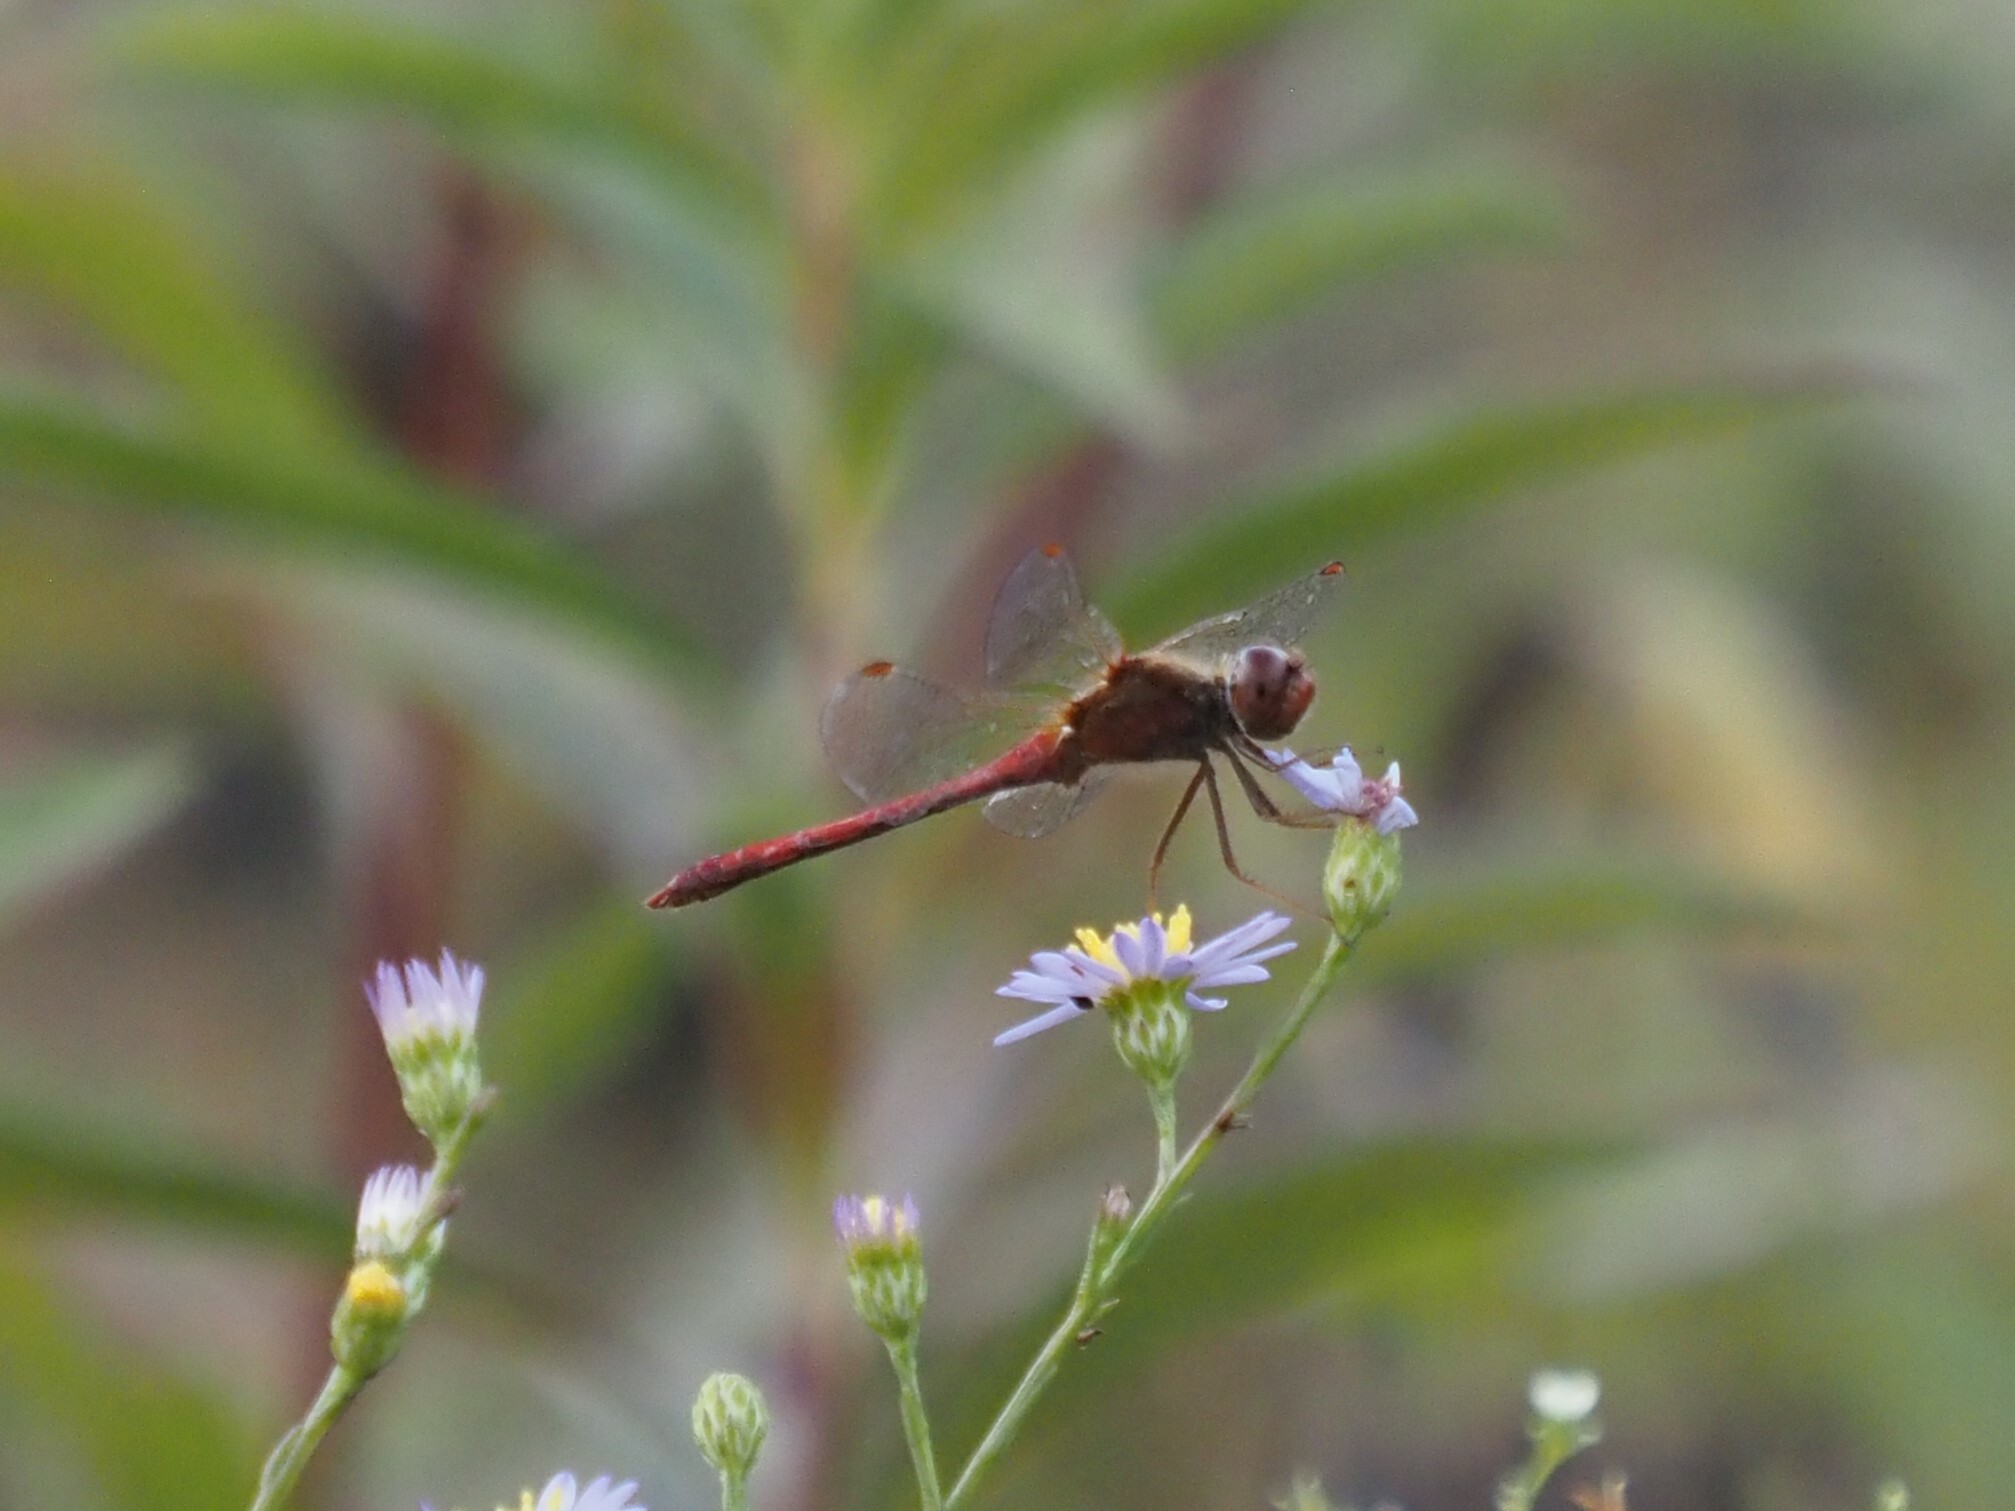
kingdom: Animalia
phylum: Arthropoda
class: Insecta
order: Odonata
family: Libellulidae
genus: Sympetrum
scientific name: Sympetrum vicinum
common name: Autumn meadowhawk
